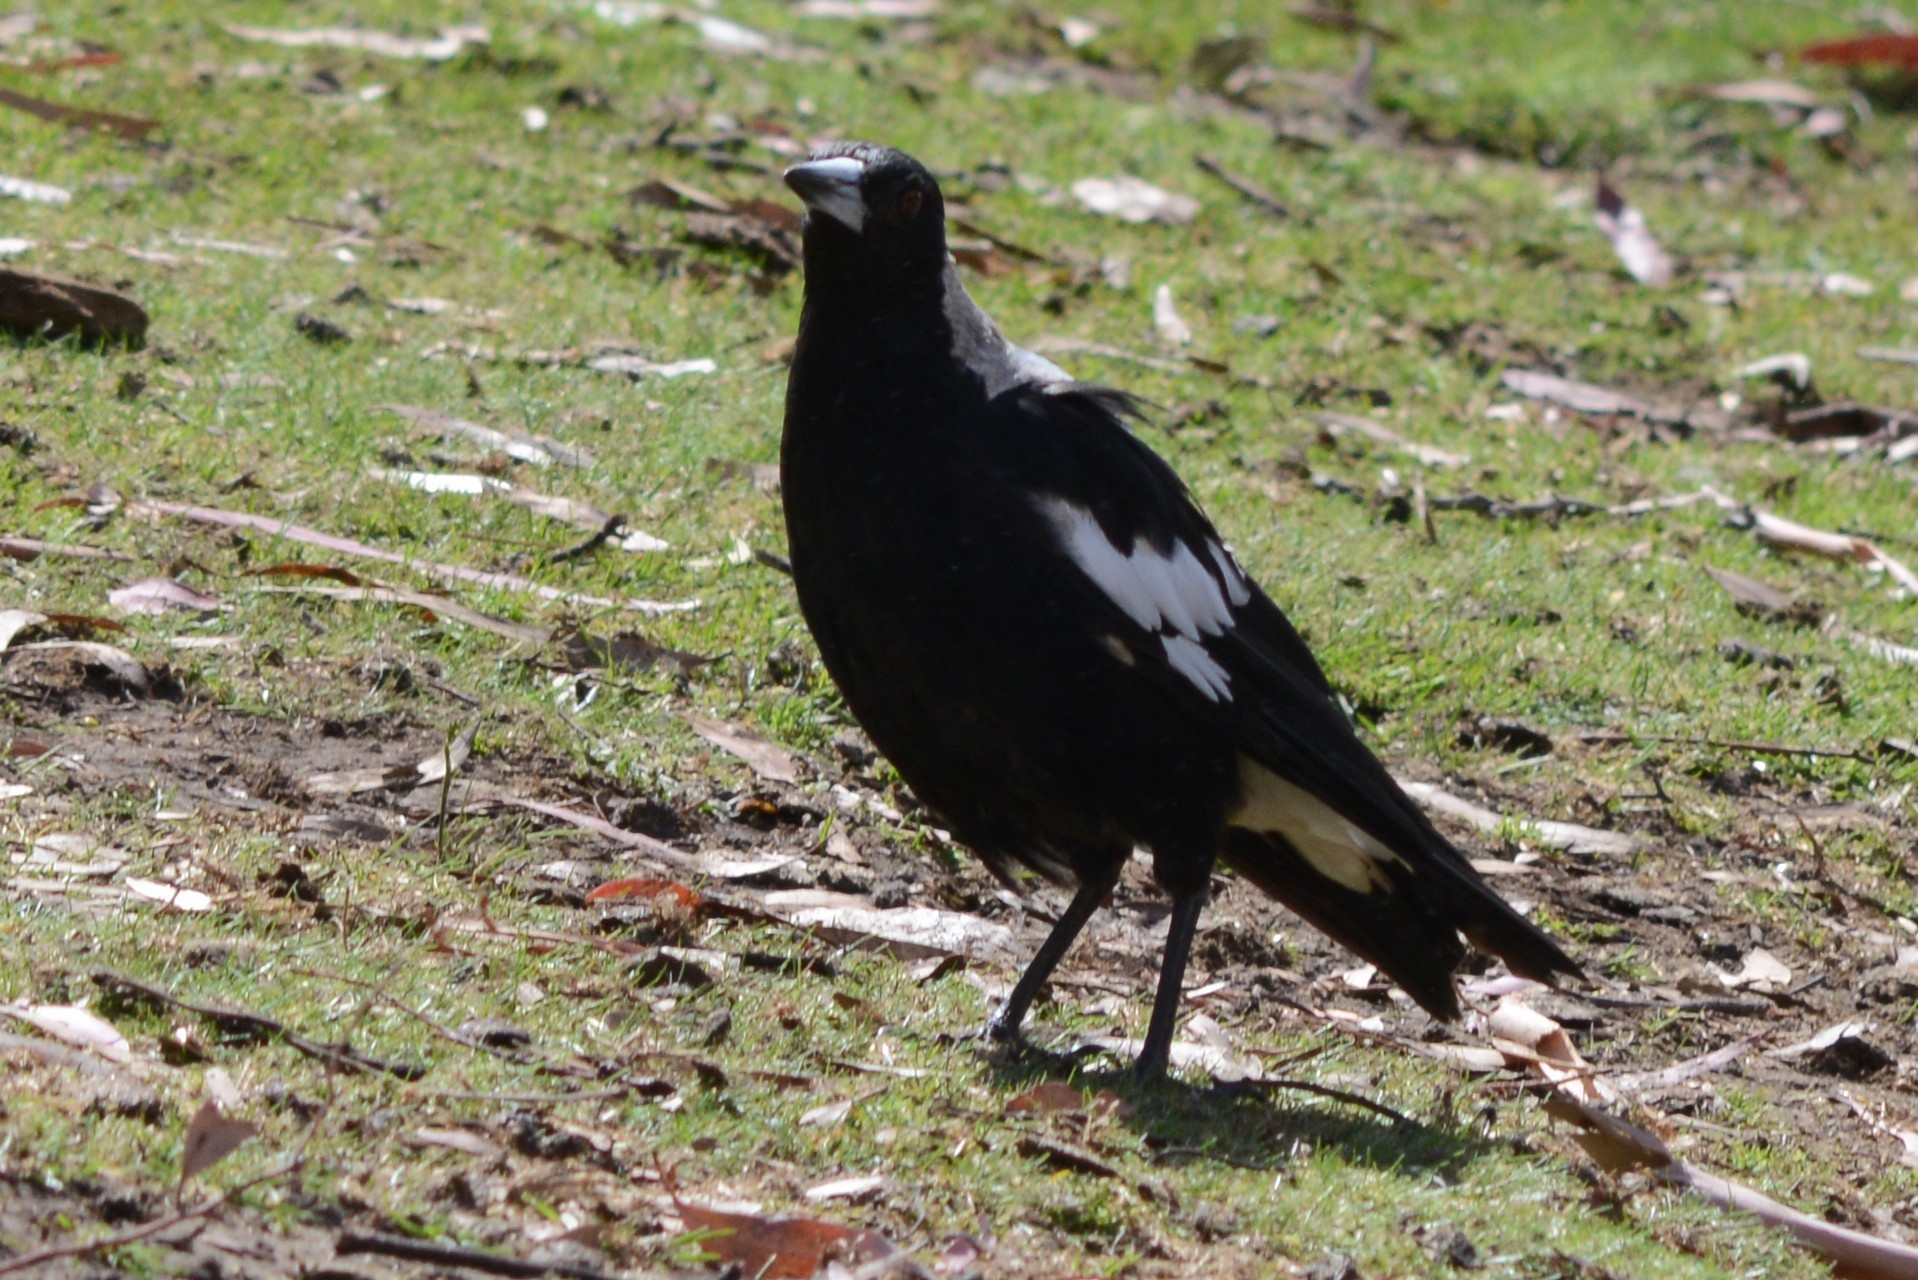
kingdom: Animalia
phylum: Chordata
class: Aves
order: Passeriformes
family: Cracticidae
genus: Gymnorhina
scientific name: Gymnorhina tibicen
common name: Australian magpie
